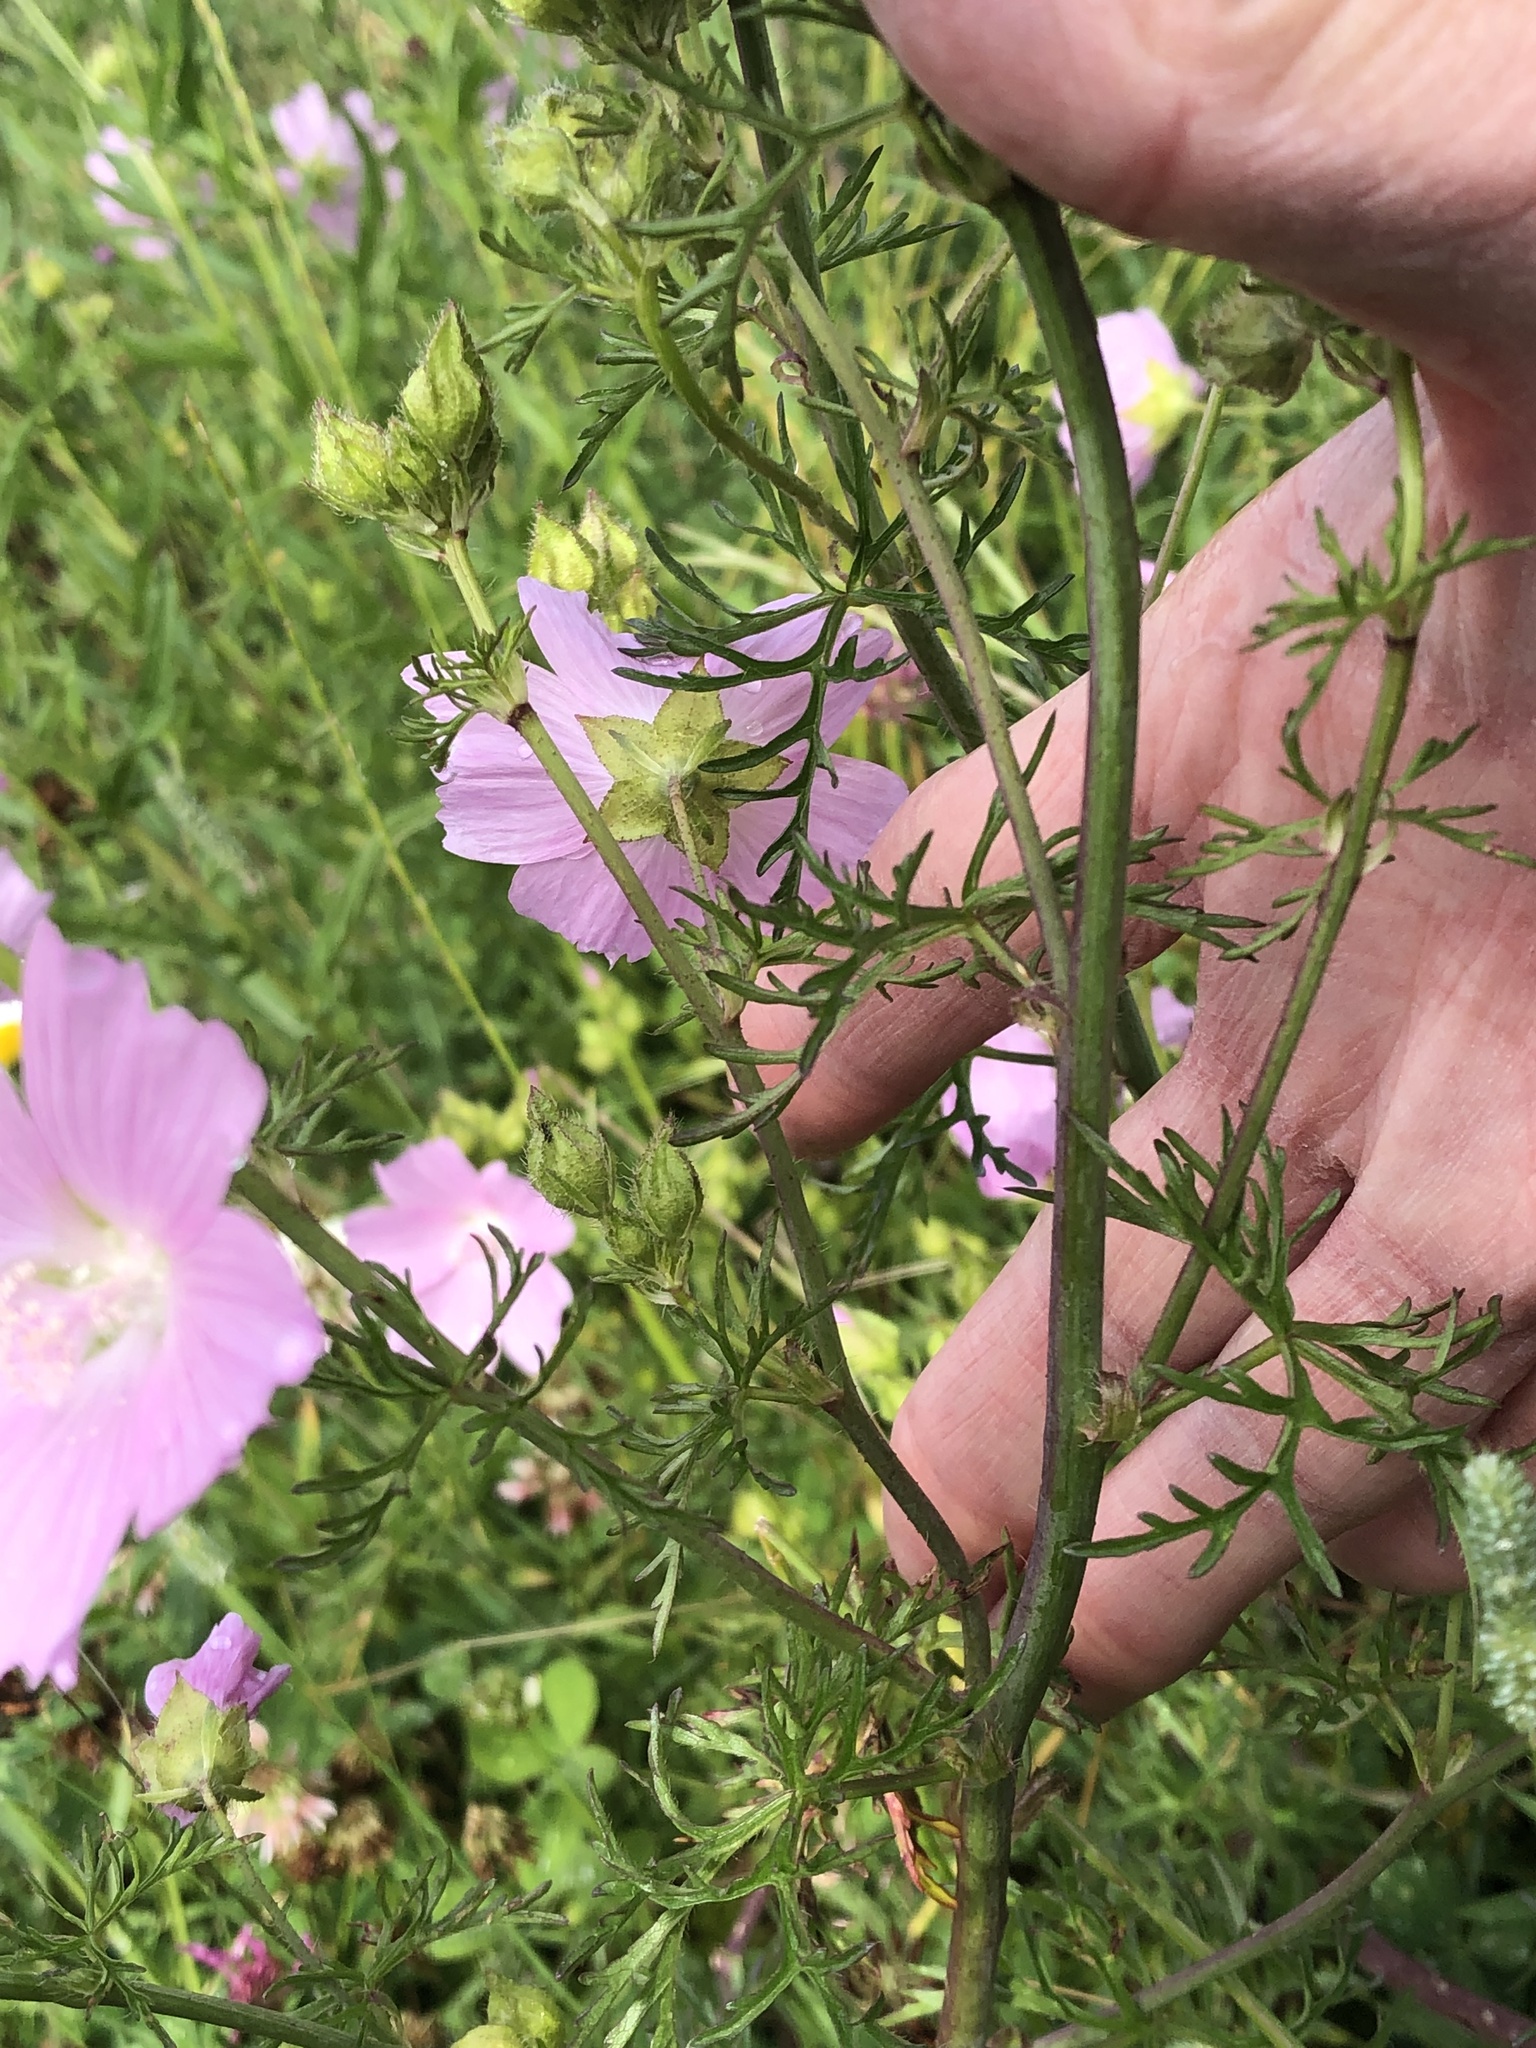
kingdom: Plantae
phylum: Tracheophyta
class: Magnoliopsida
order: Malvales
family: Malvaceae
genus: Malva
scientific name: Malva moschata
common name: Musk mallow
